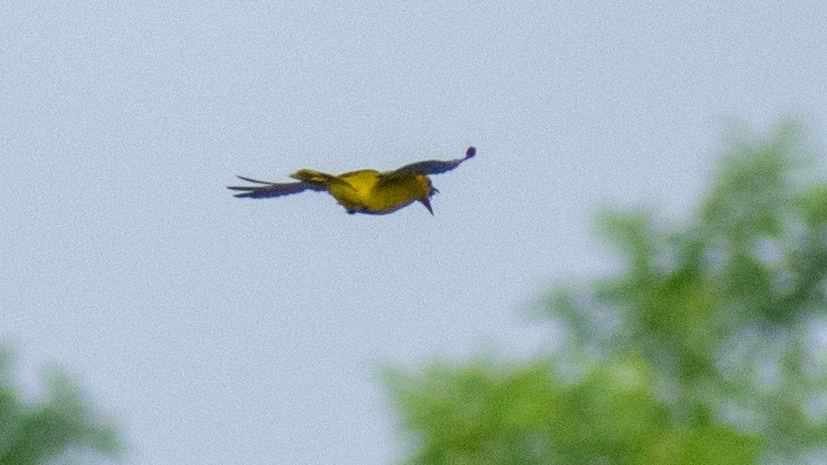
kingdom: Animalia
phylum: Chordata
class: Aves
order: Passeriformes
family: Oriolidae
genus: Oriolus
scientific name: Oriolus oriolus
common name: Eurasian golden oriole
